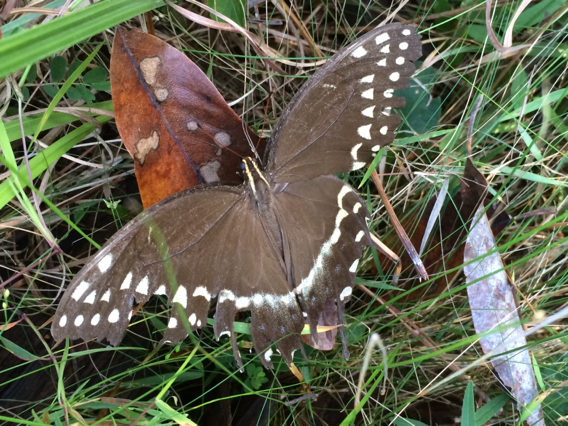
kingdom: Animalia
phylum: Arthropoda
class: Insecta
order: Lepidoptera
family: Papilionidae
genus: Papilio
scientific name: Papilio palamedes
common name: Palamedes swallowtail
